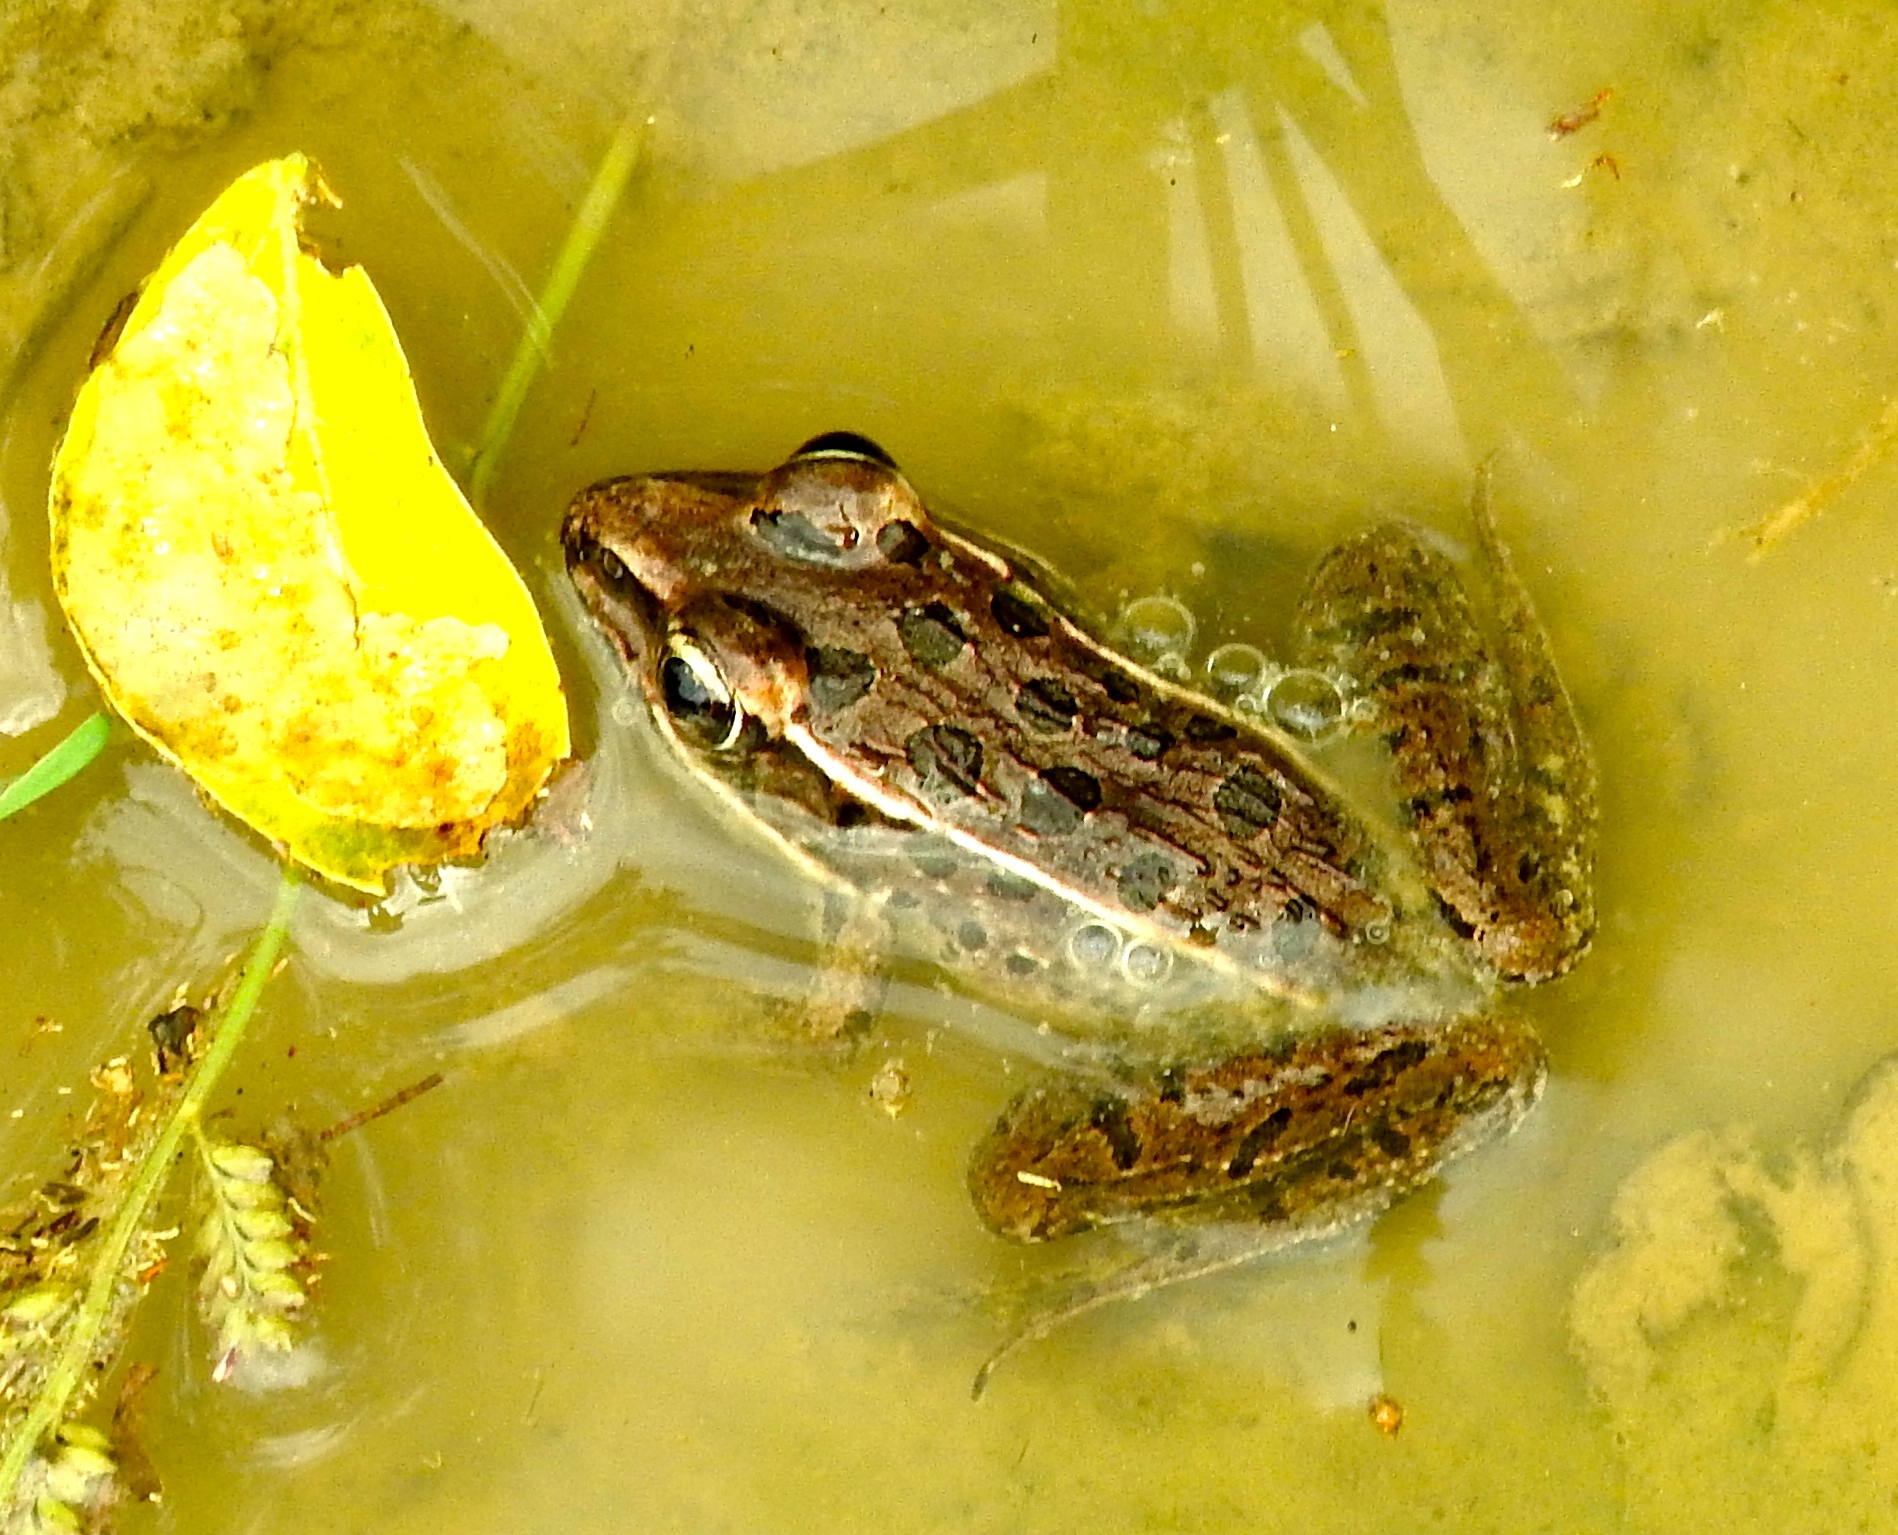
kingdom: Animalia
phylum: Chordata
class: Amphibia
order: Anura
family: Ranidae
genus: Lithobates
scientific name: Lithobates
